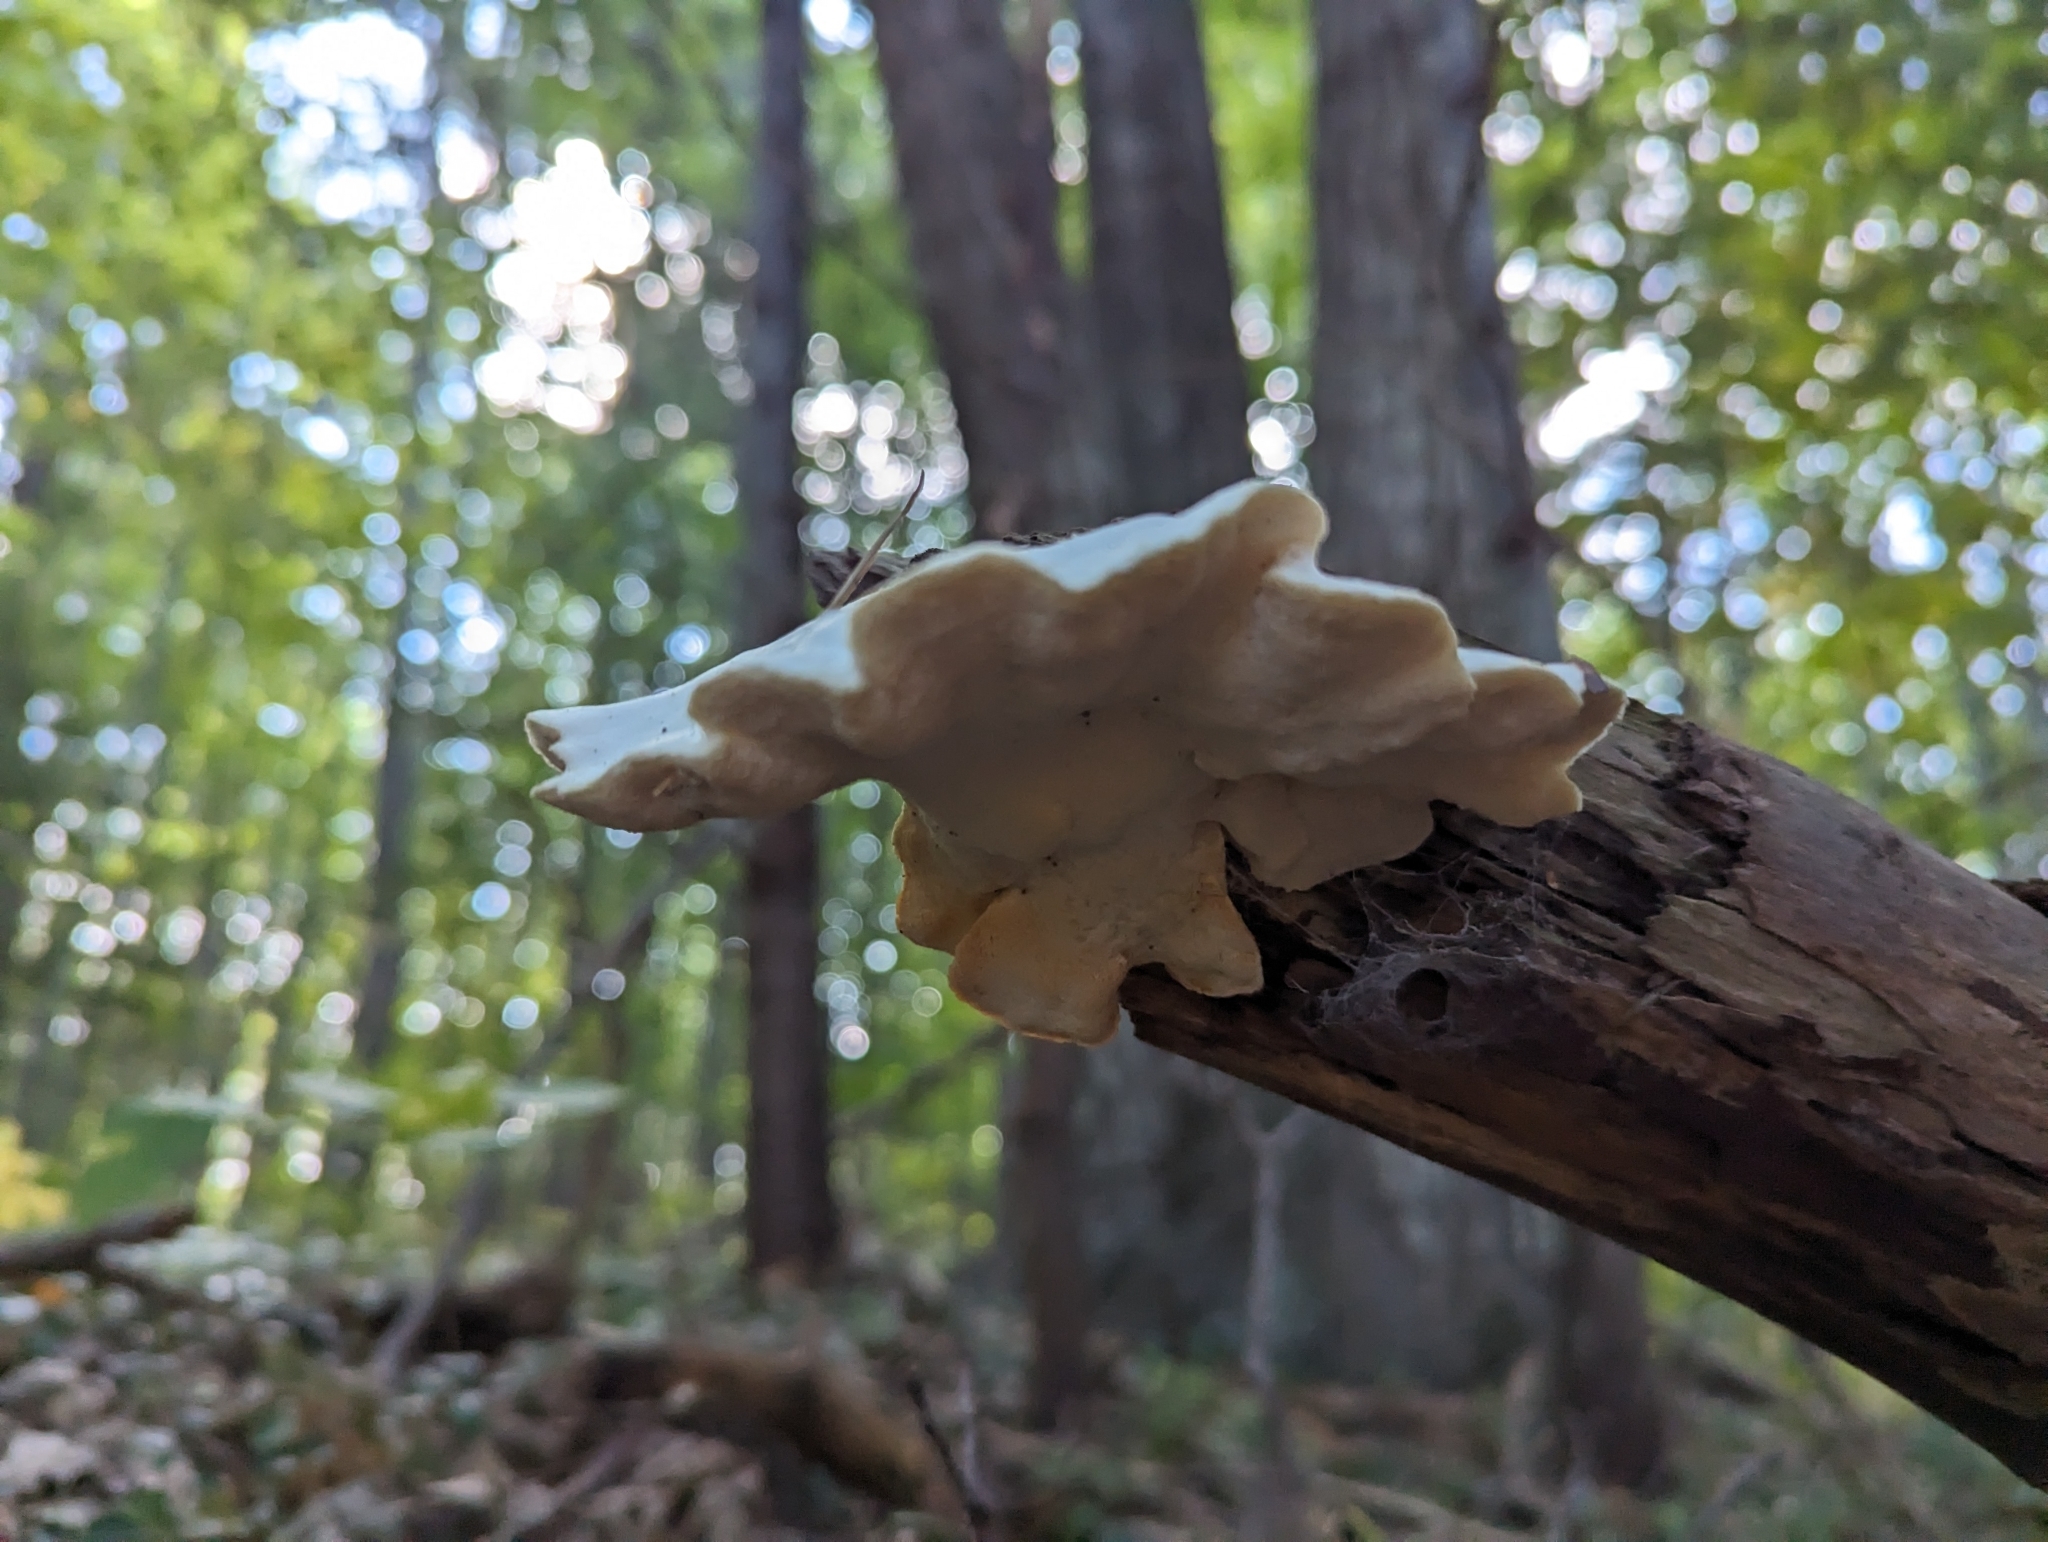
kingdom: Fungi
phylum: Basidiomycota
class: Agaricomycetes
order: Polyporales
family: Incrustoporiaceae
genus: Tyromyces
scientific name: Tyromyces chioneus
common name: White cheese polypore
